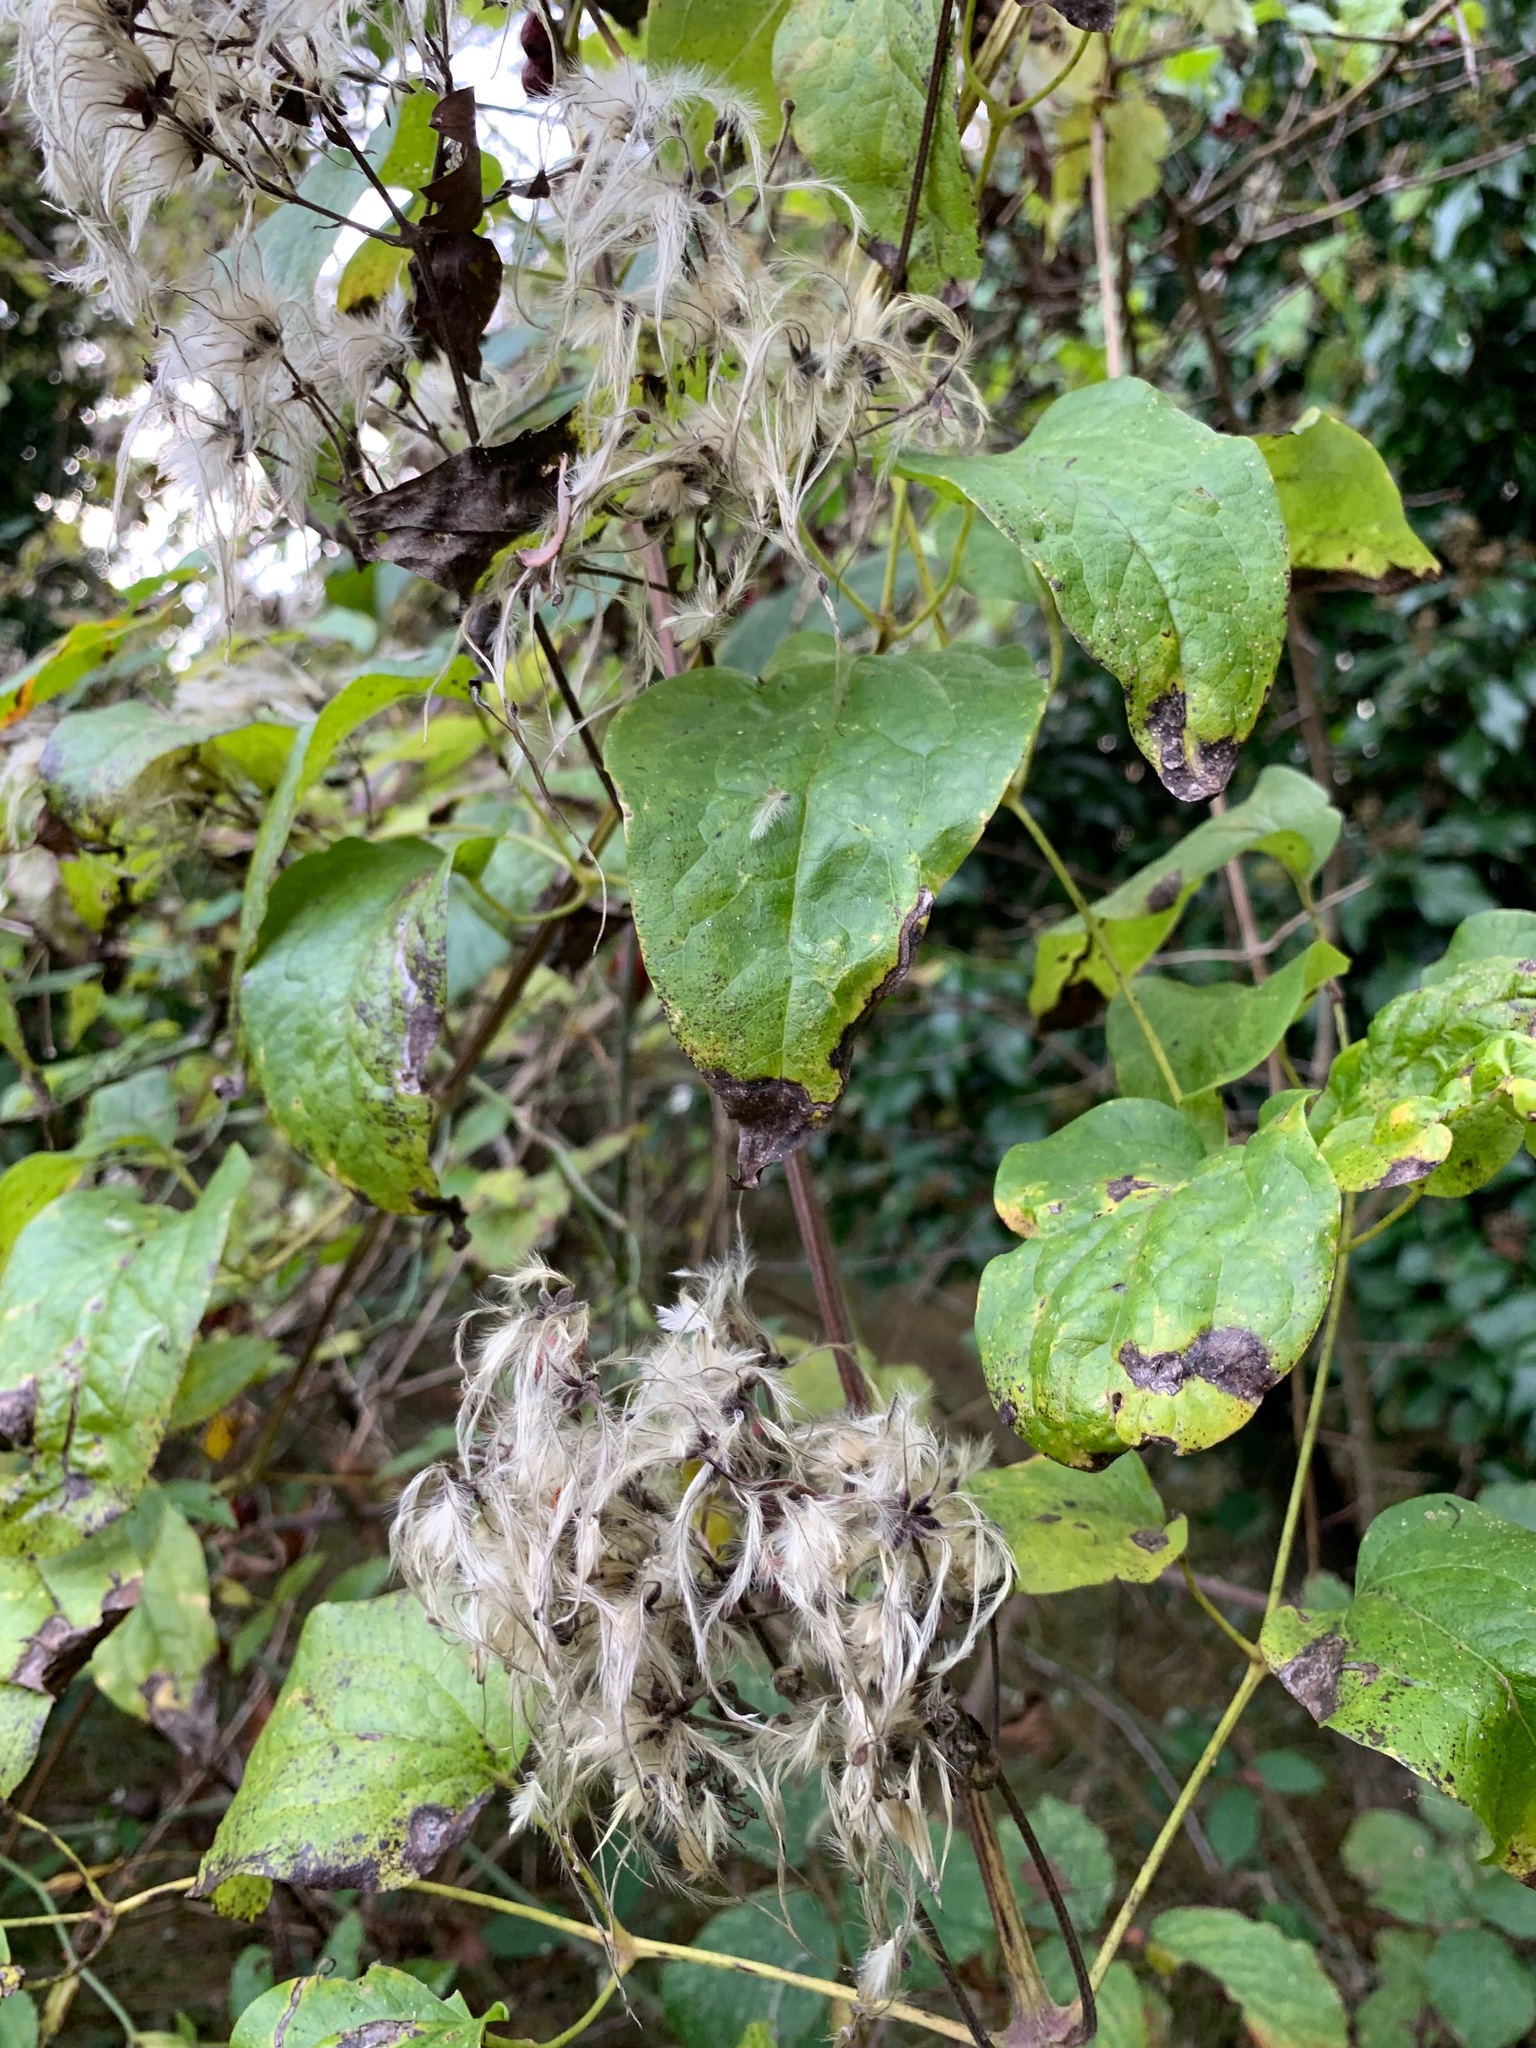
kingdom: Plantae
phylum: Tracheophyta
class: Magnoliopsida
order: Ranunculales
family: Ranunculaceae
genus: Clematis
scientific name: Clematis vitalba
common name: Evergreen clematis
